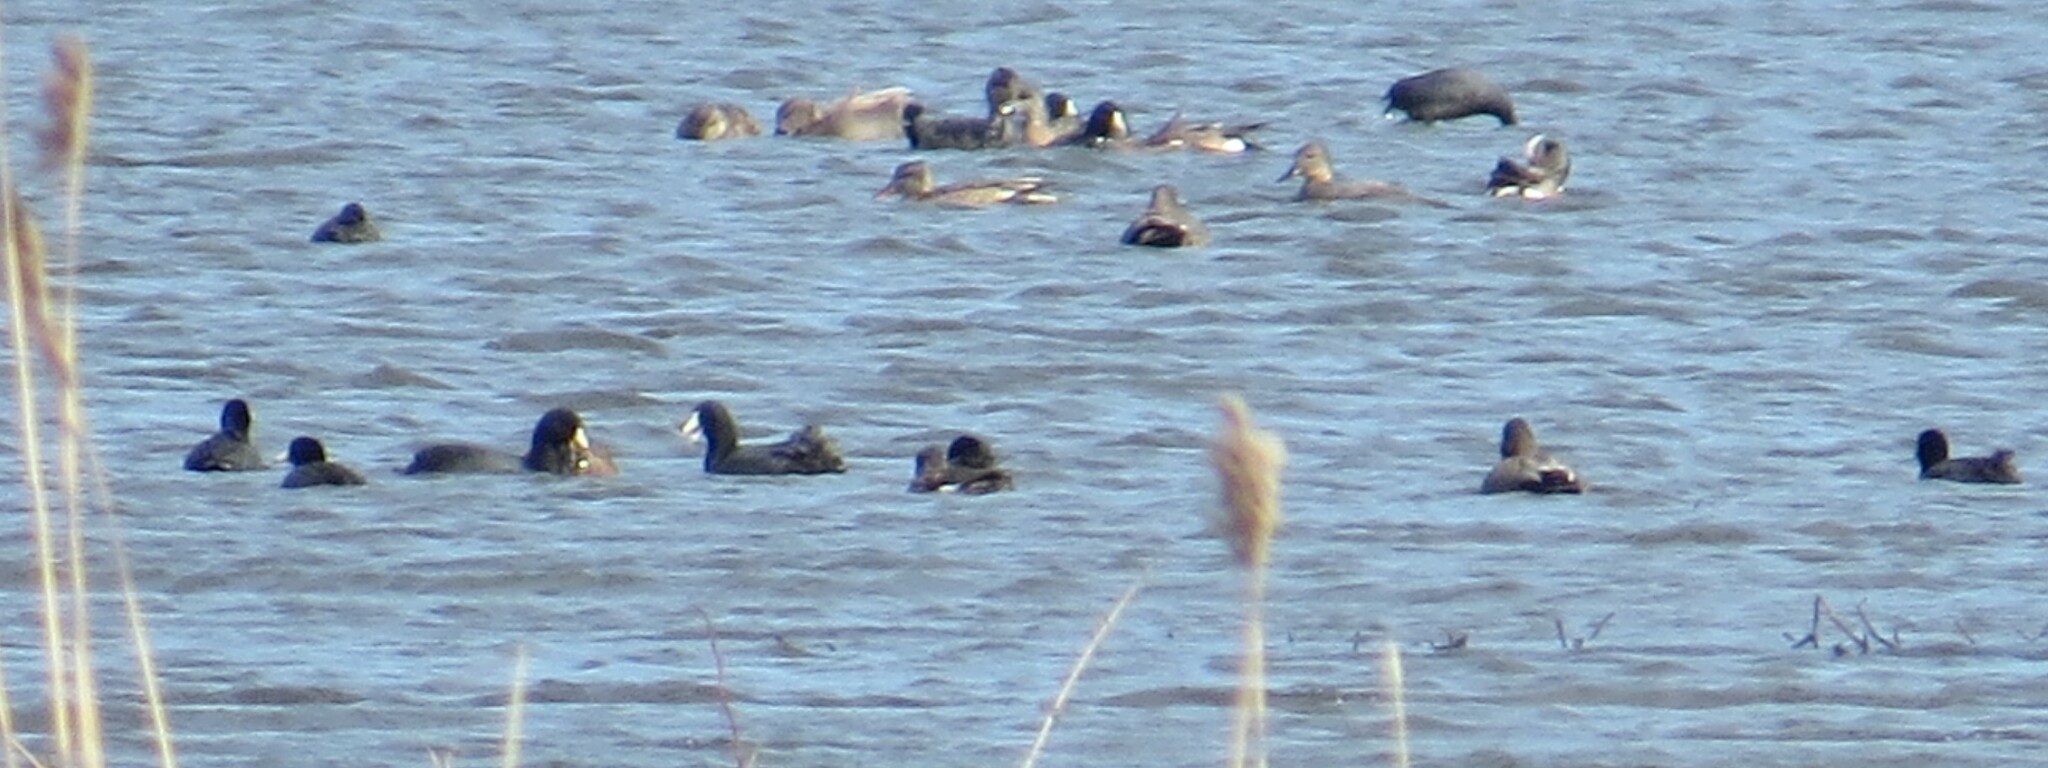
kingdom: Animalia
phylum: Chordata
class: Aves
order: Gruiformes
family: Rallidae
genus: Fulica
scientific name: Fulica americana
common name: American coot
